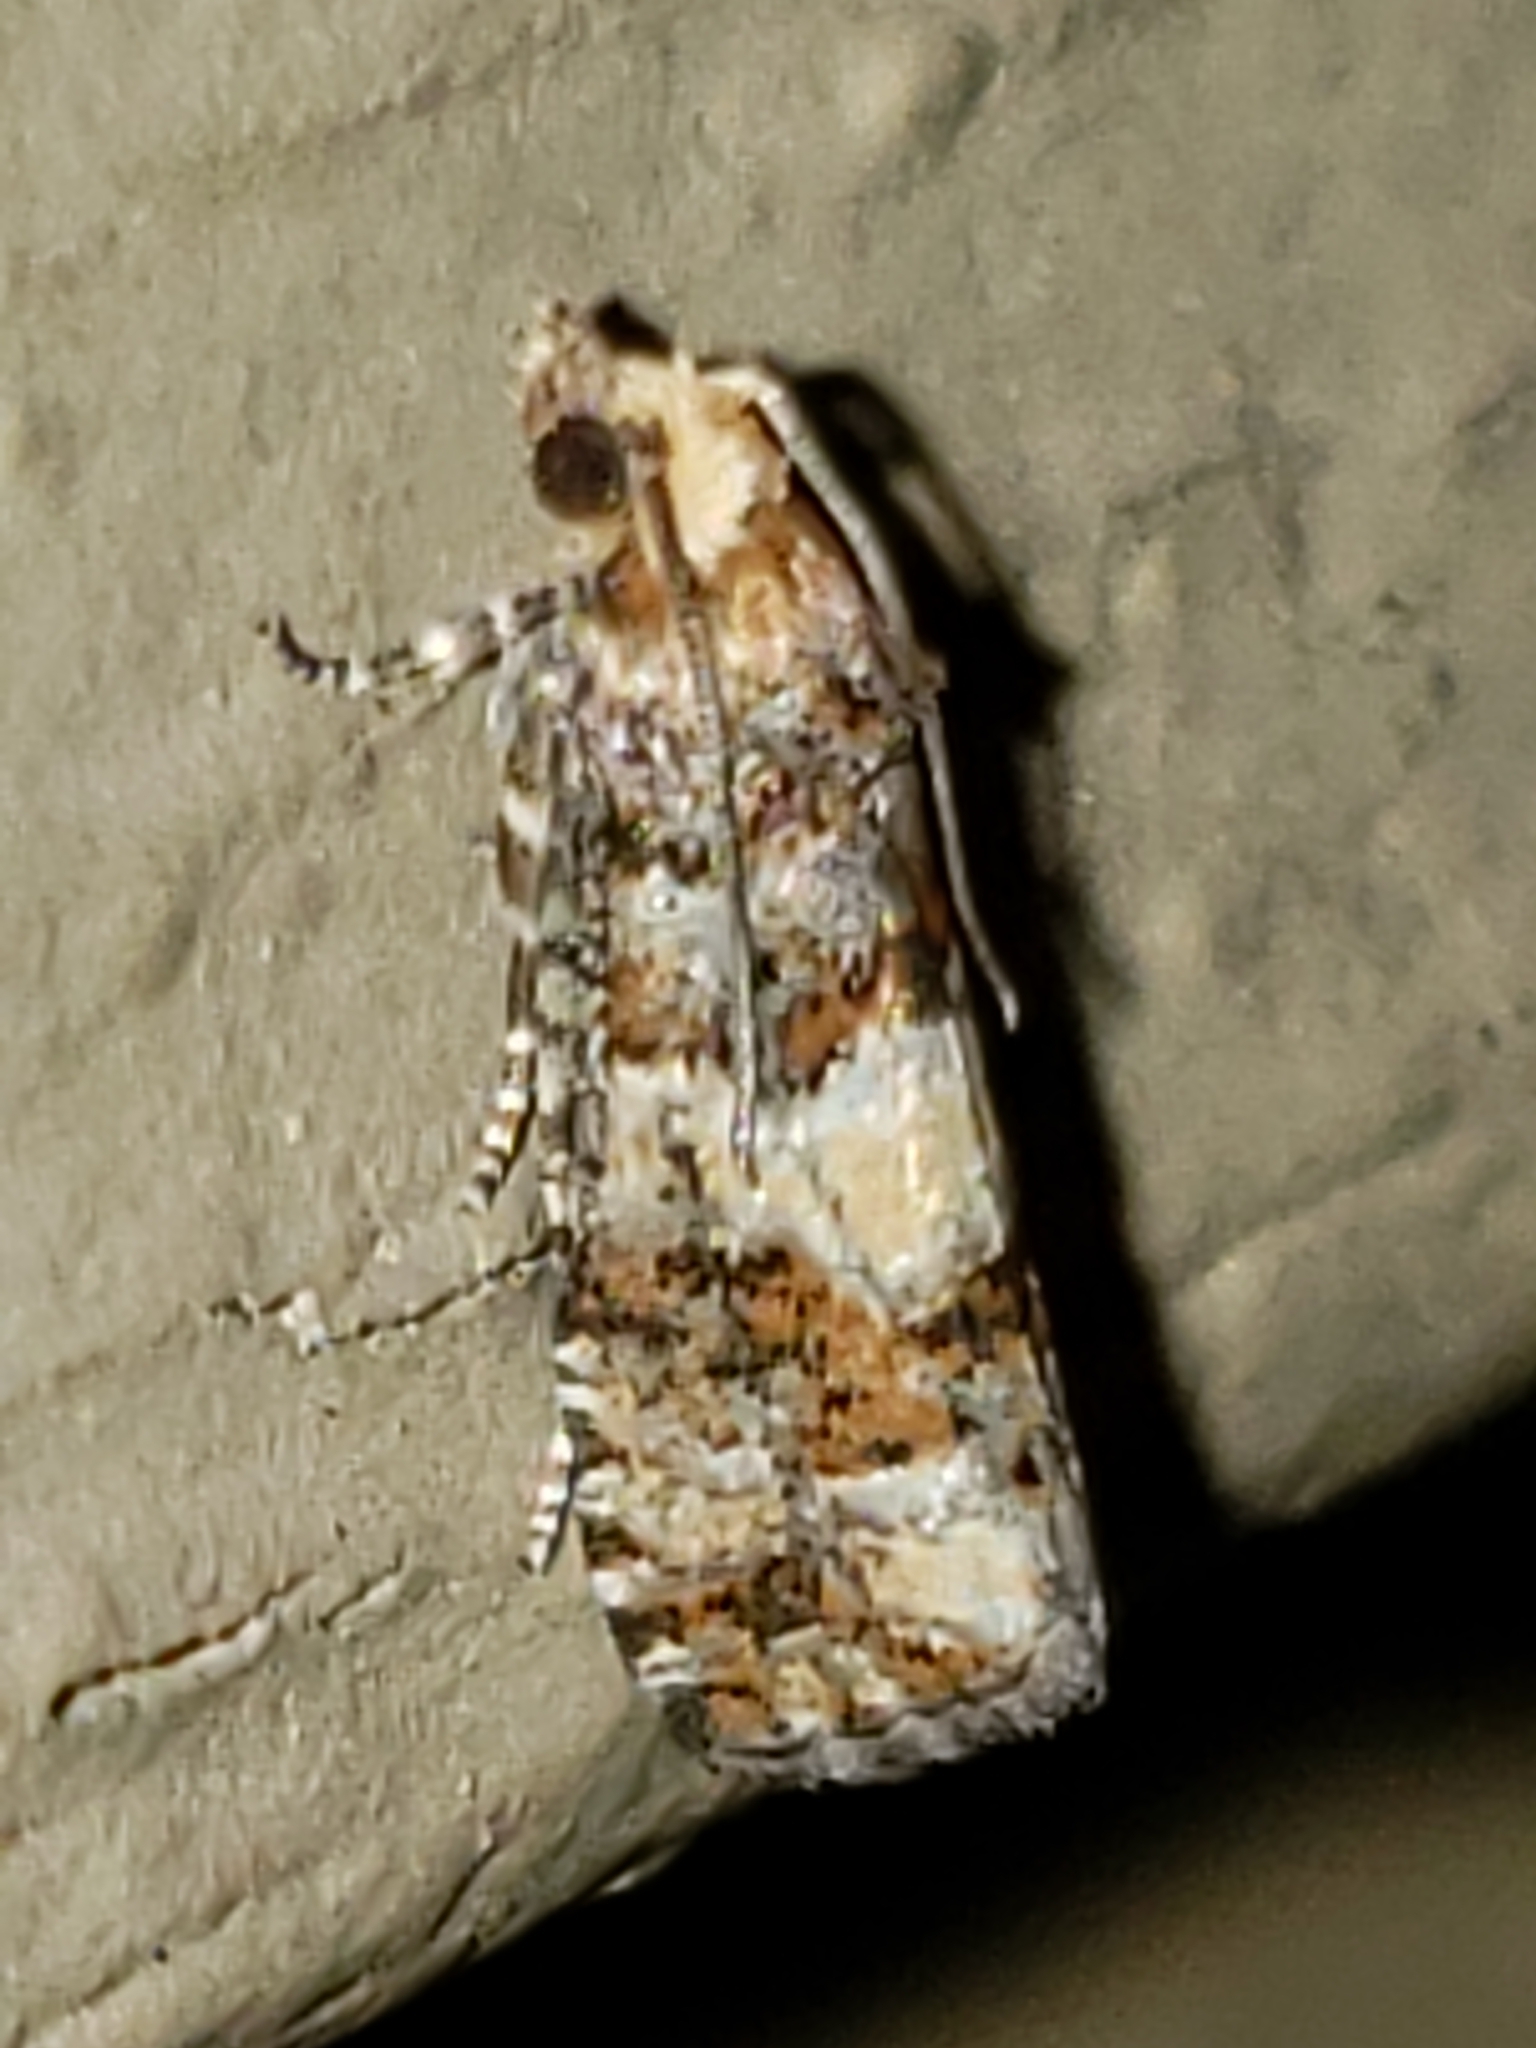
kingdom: Animalia
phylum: Arthropoda
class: Insecta
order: Lepidoptera
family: Tortricidae
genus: Eucopina
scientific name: Eucopina tocullionana
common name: White pinecone borer moth
